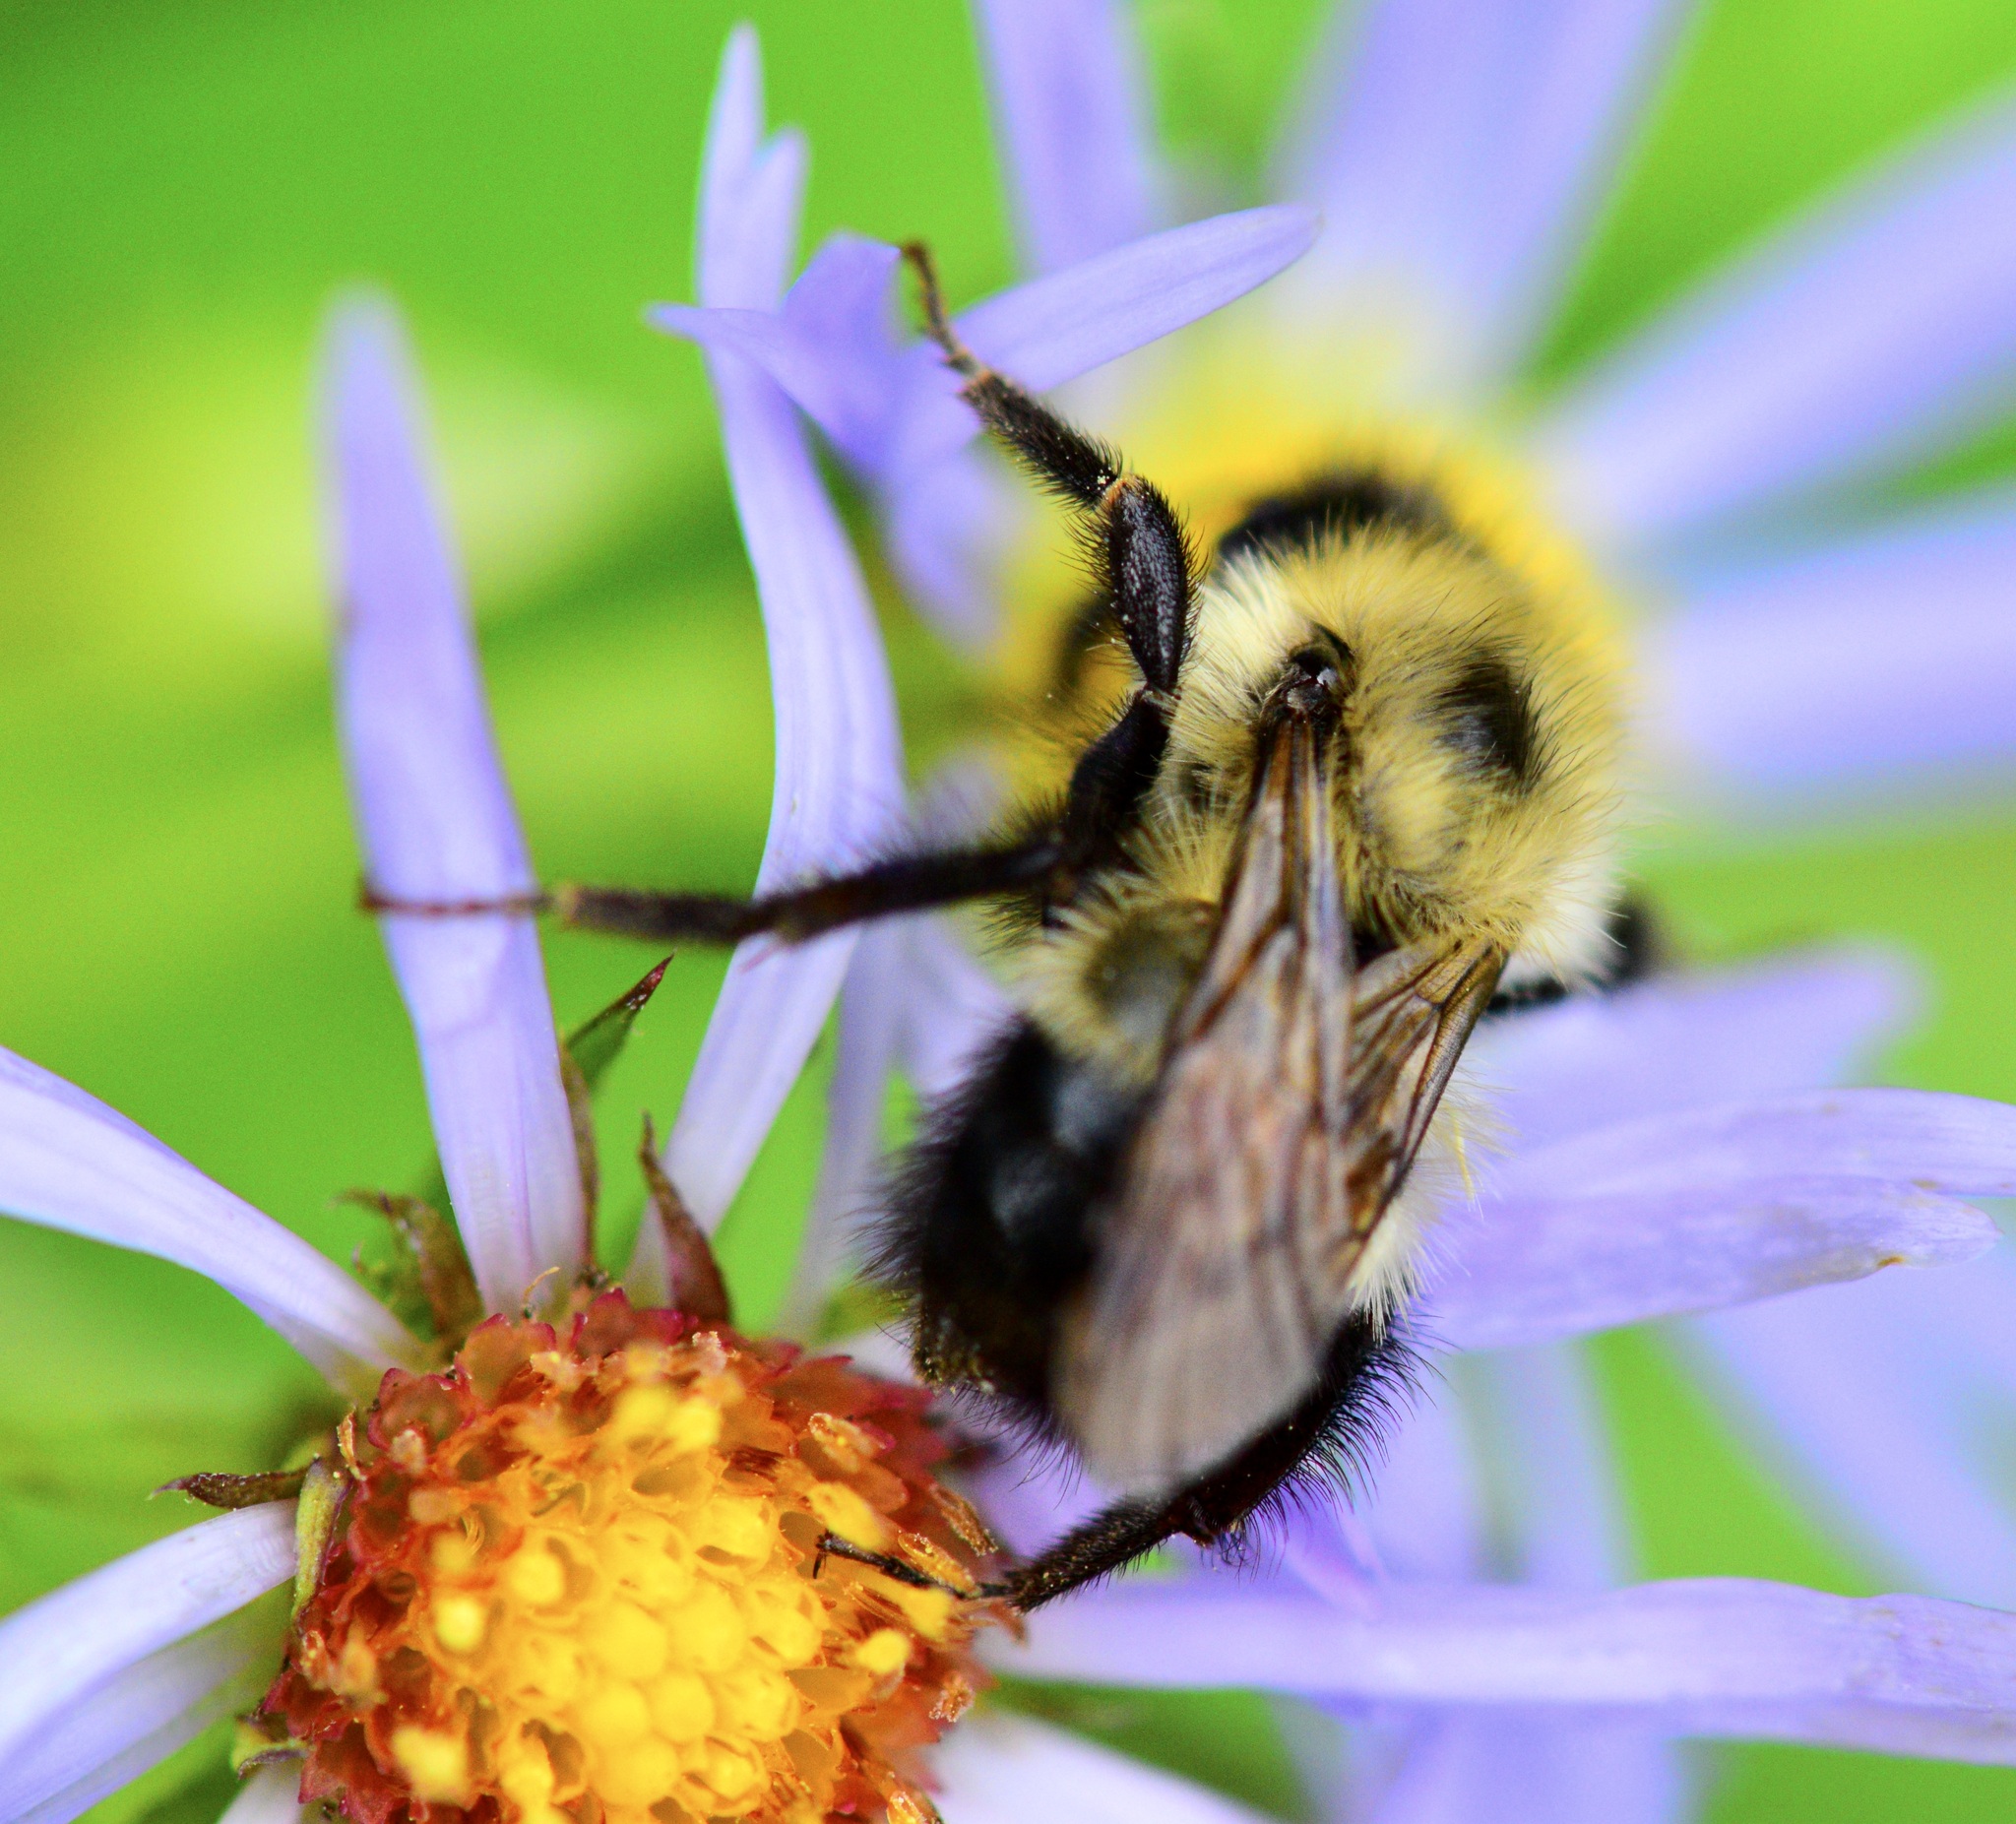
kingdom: Animalia
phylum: Arthropoda
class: Insecta
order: Hymenoptera
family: Apidae
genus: Pyrobombus
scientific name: Pyrobombus
